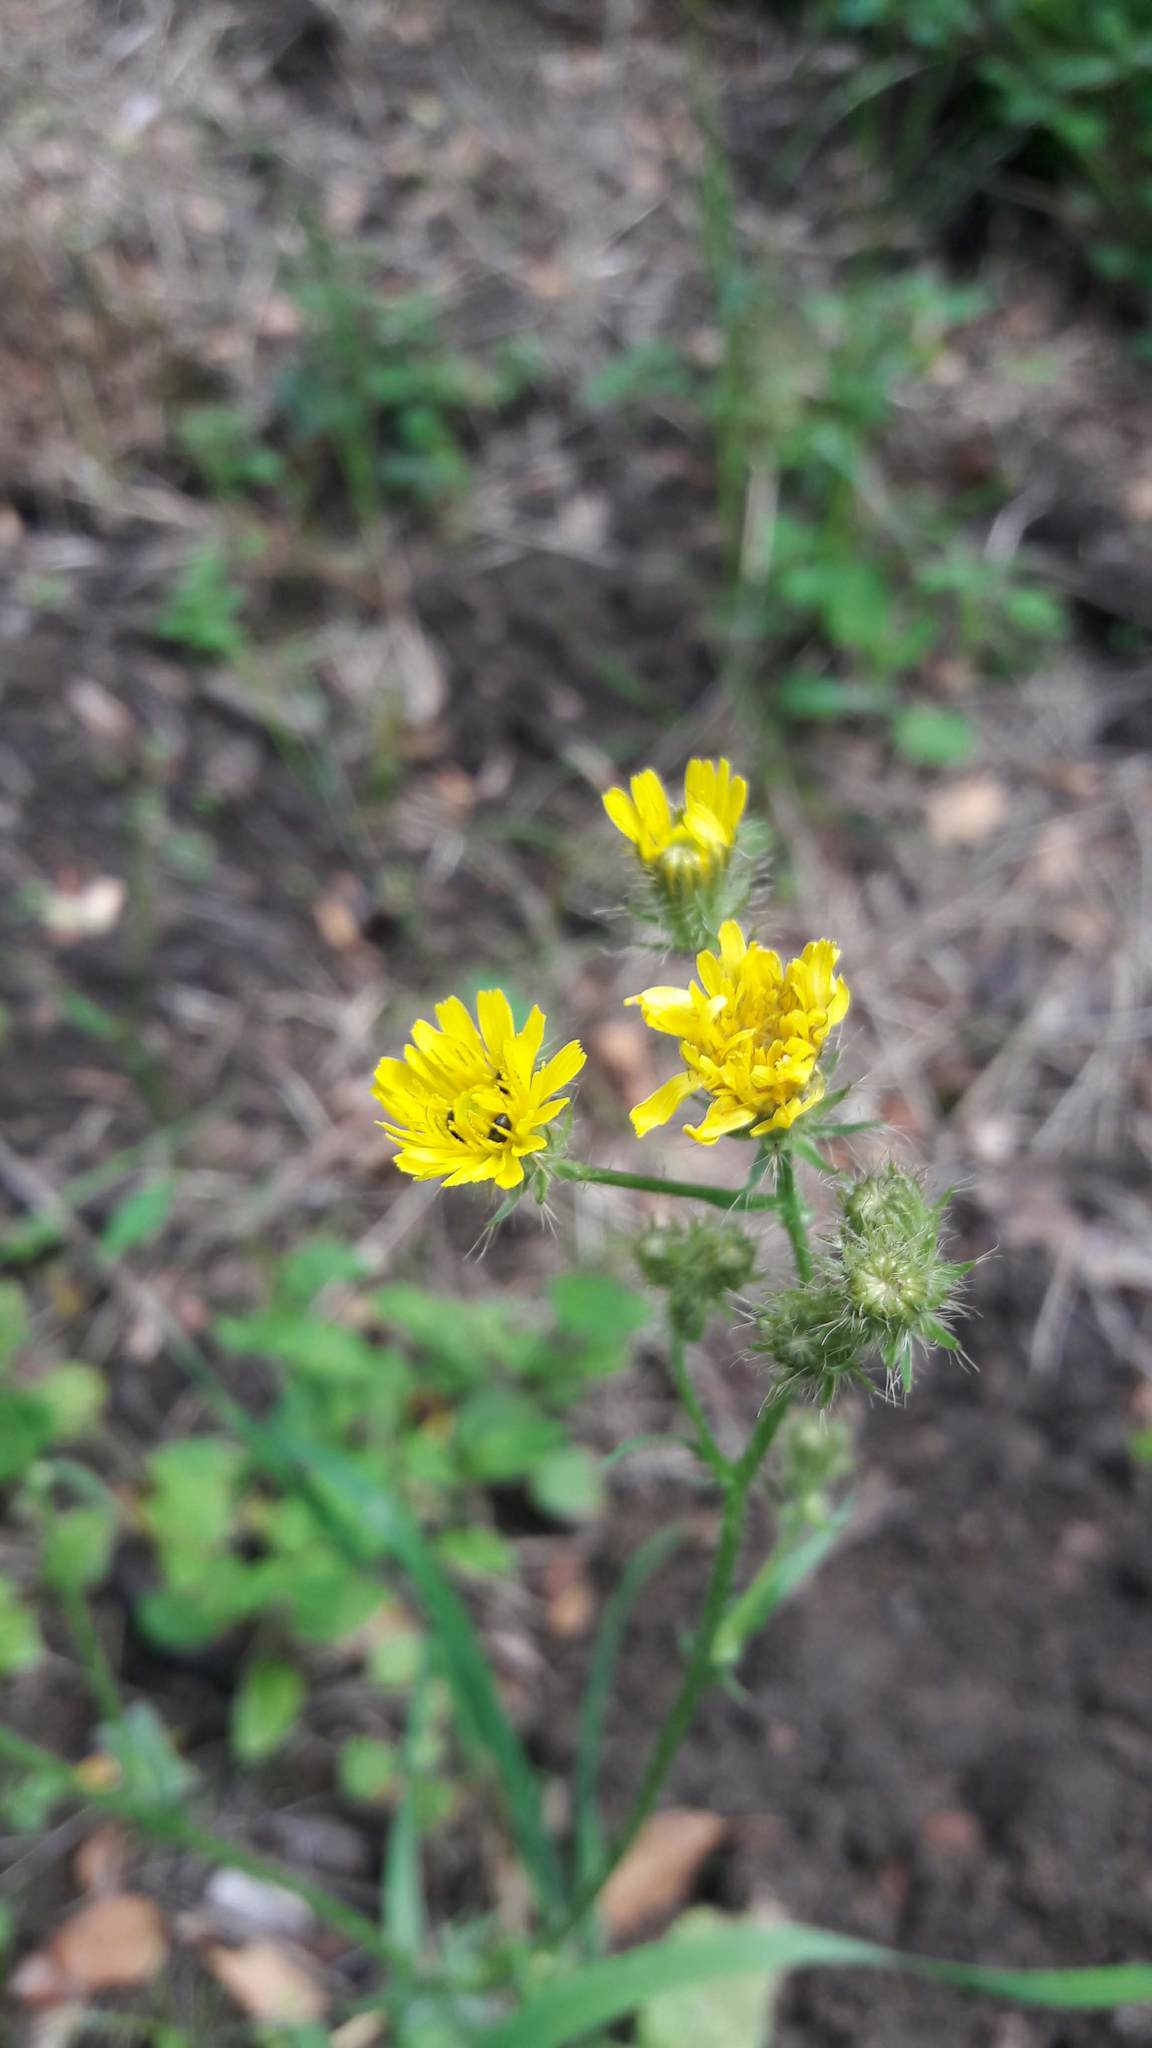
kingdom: Plantae
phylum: Tracheophyta
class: Magnoliopsida
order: Asterales
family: Asteraceae
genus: Crepis
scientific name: Crepis setosa
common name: Bristly hawk's-beard
